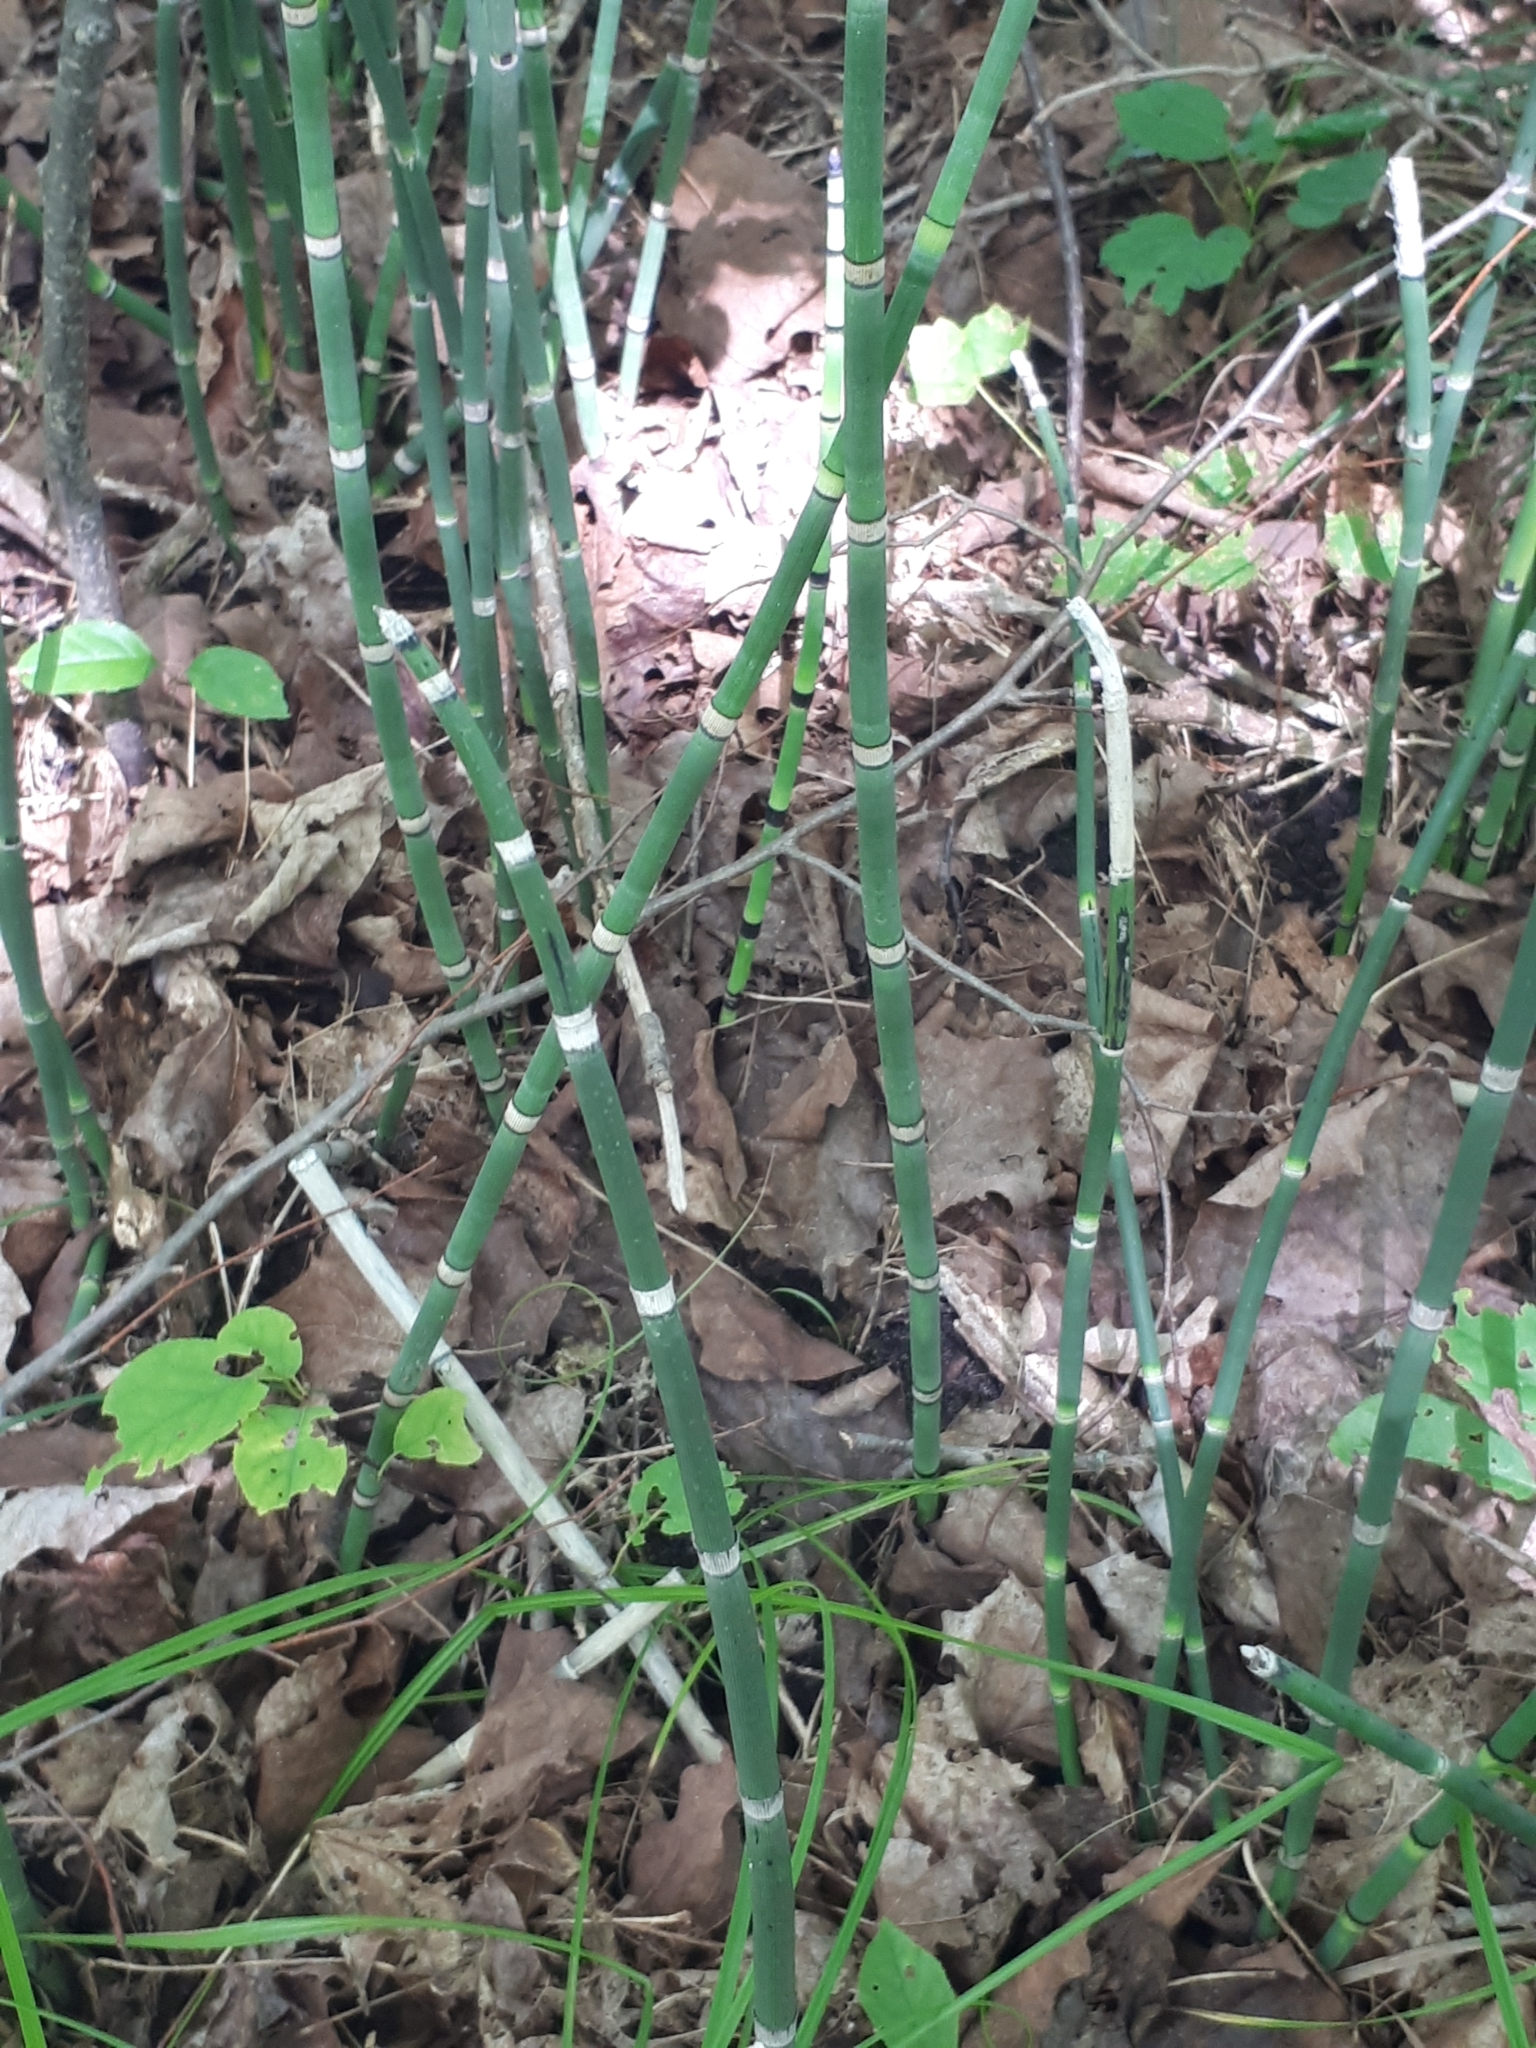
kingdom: Plantae
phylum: Tracheophyta
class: Polypodiopsida
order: Equisetales
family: Equisetaceae
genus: Equisetum
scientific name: Equisetum praealtum
